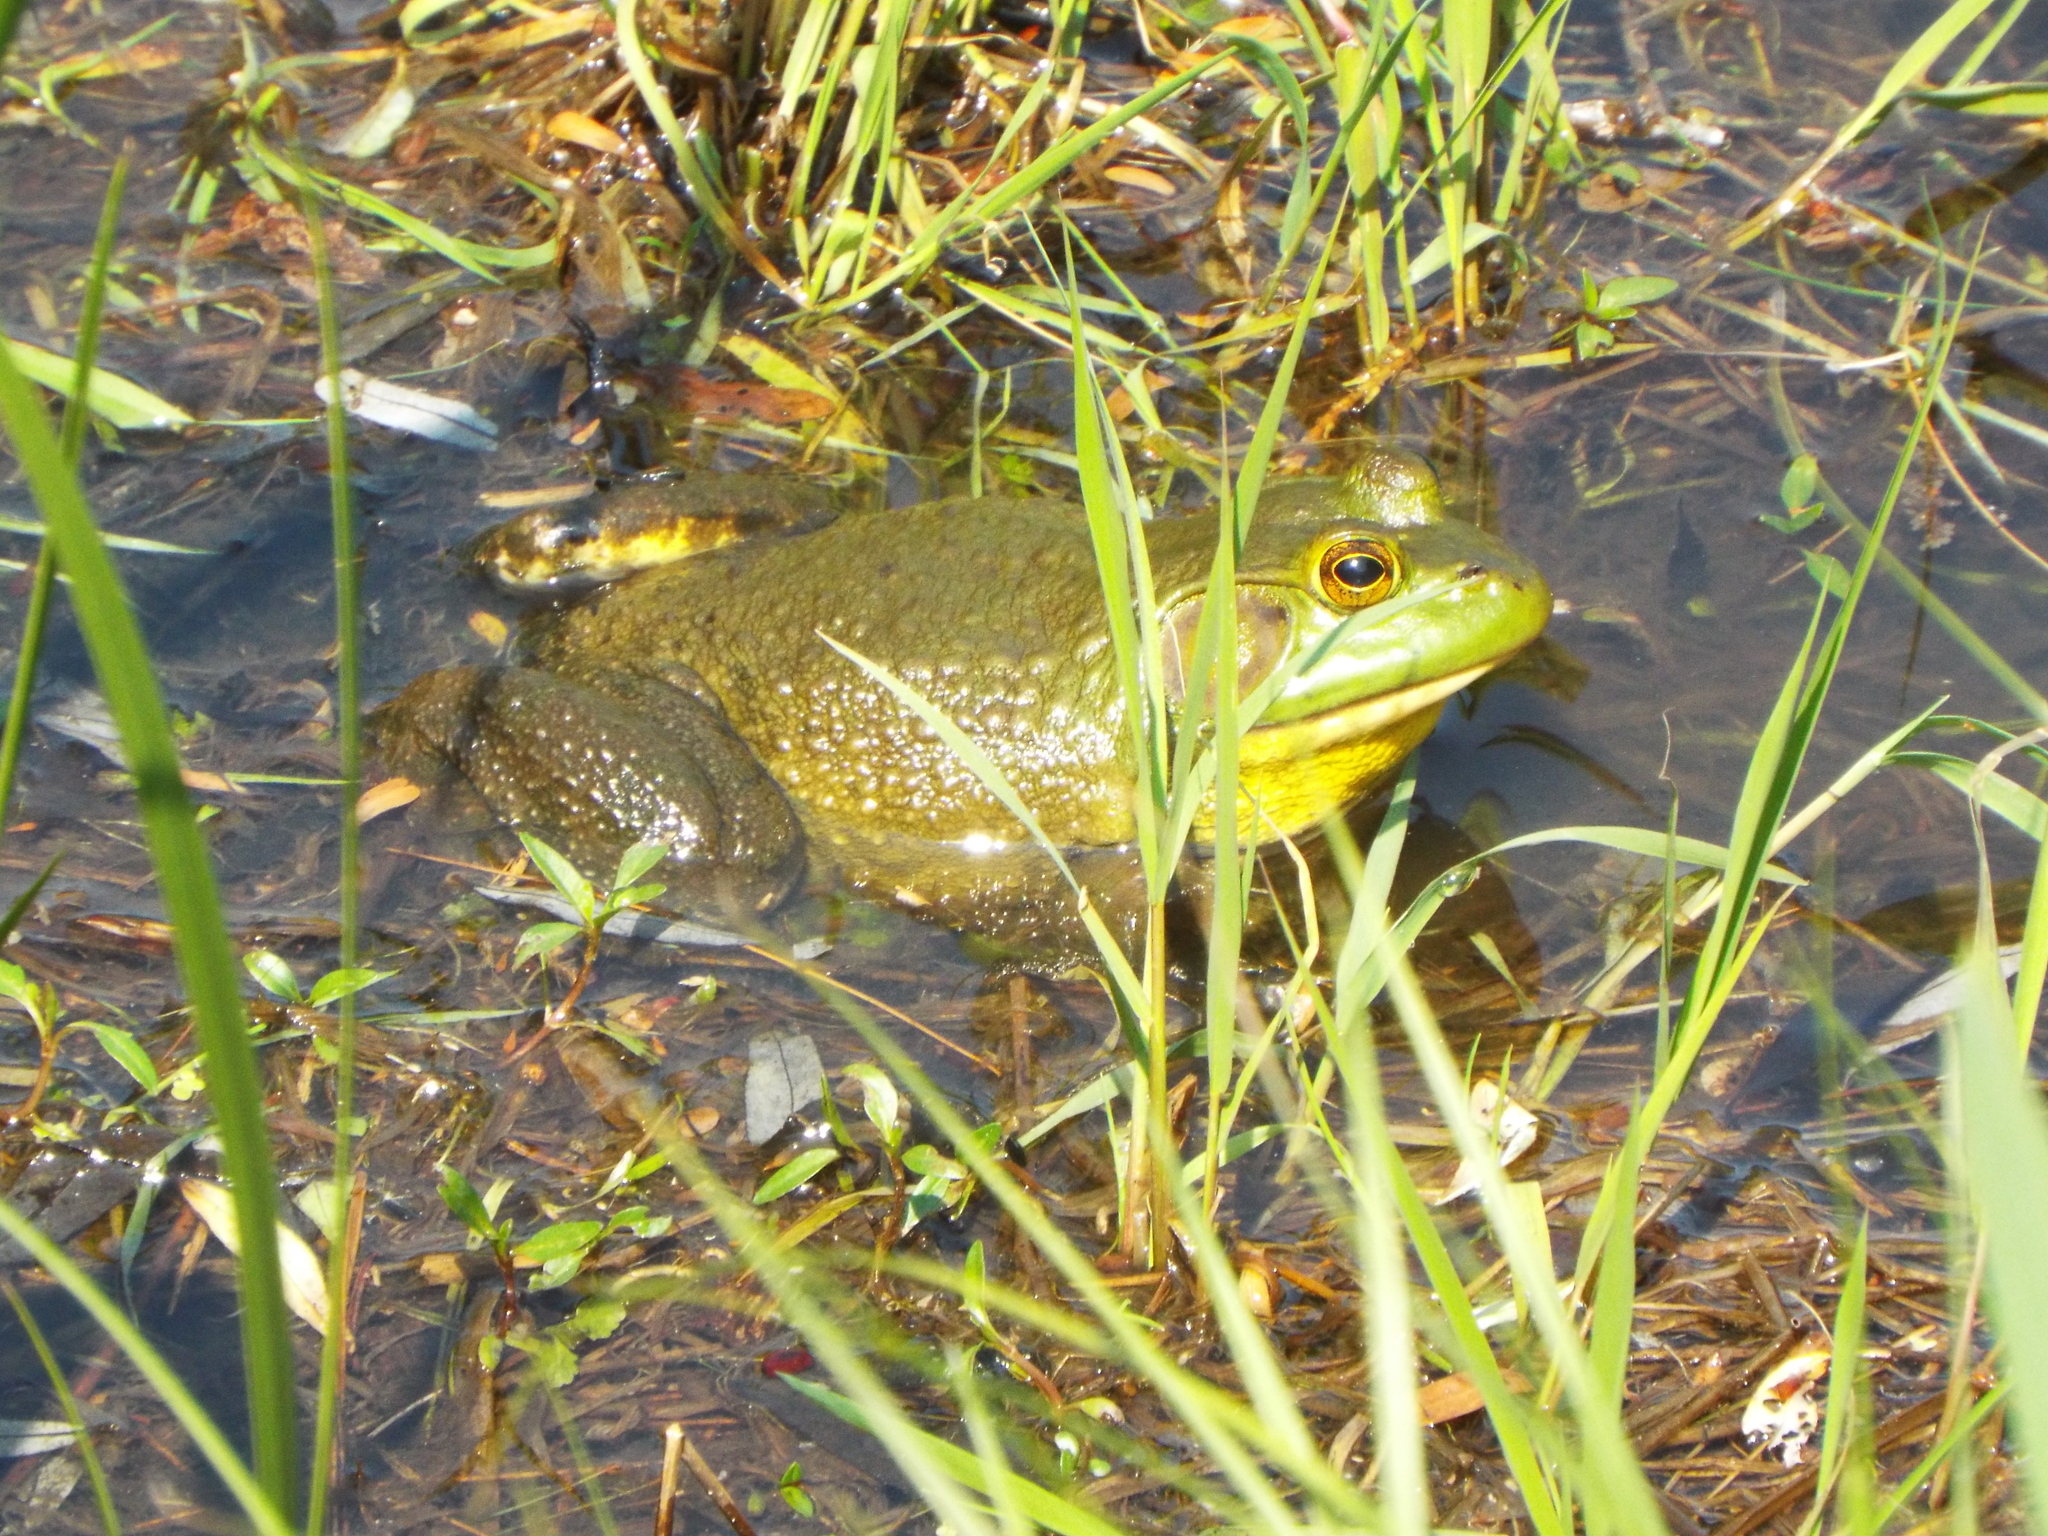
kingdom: Animalia
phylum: Chordata
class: Amphibia
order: Anura
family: Ranidae
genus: Lithobates
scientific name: Lithobates catesbeianus
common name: American bullfrog
